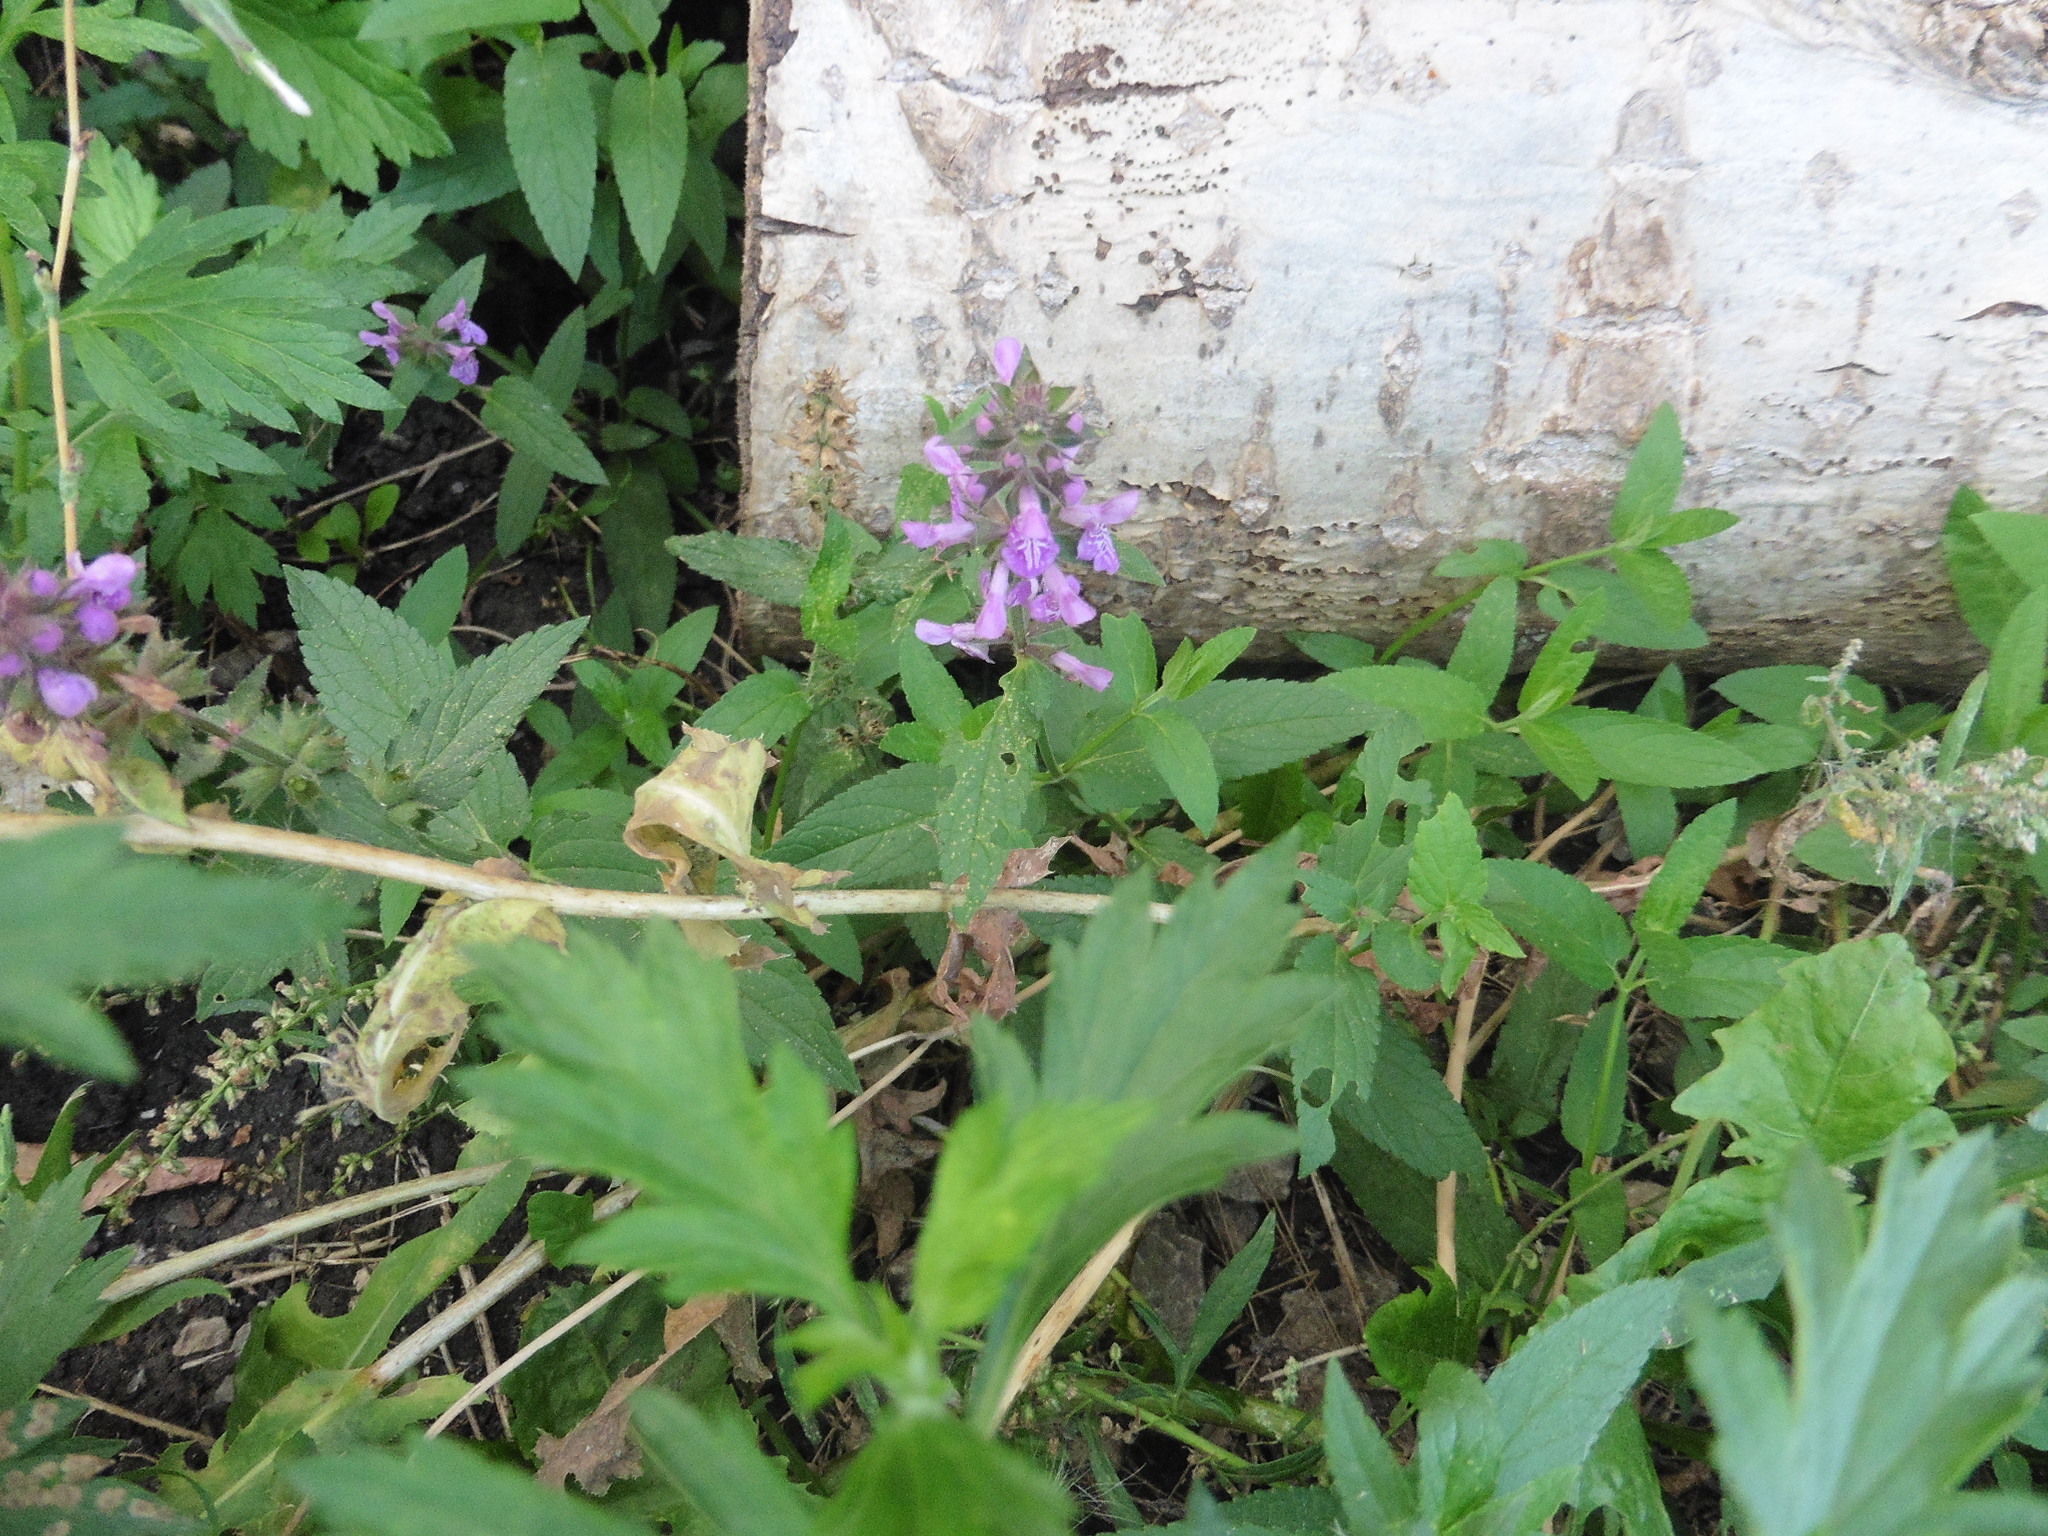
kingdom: Plantae
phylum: Tracheophyta
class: Magnoliopsida
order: Lamiales
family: Lamiaceae
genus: Stachys
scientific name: Stachys palustris
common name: Marsh woundwort
